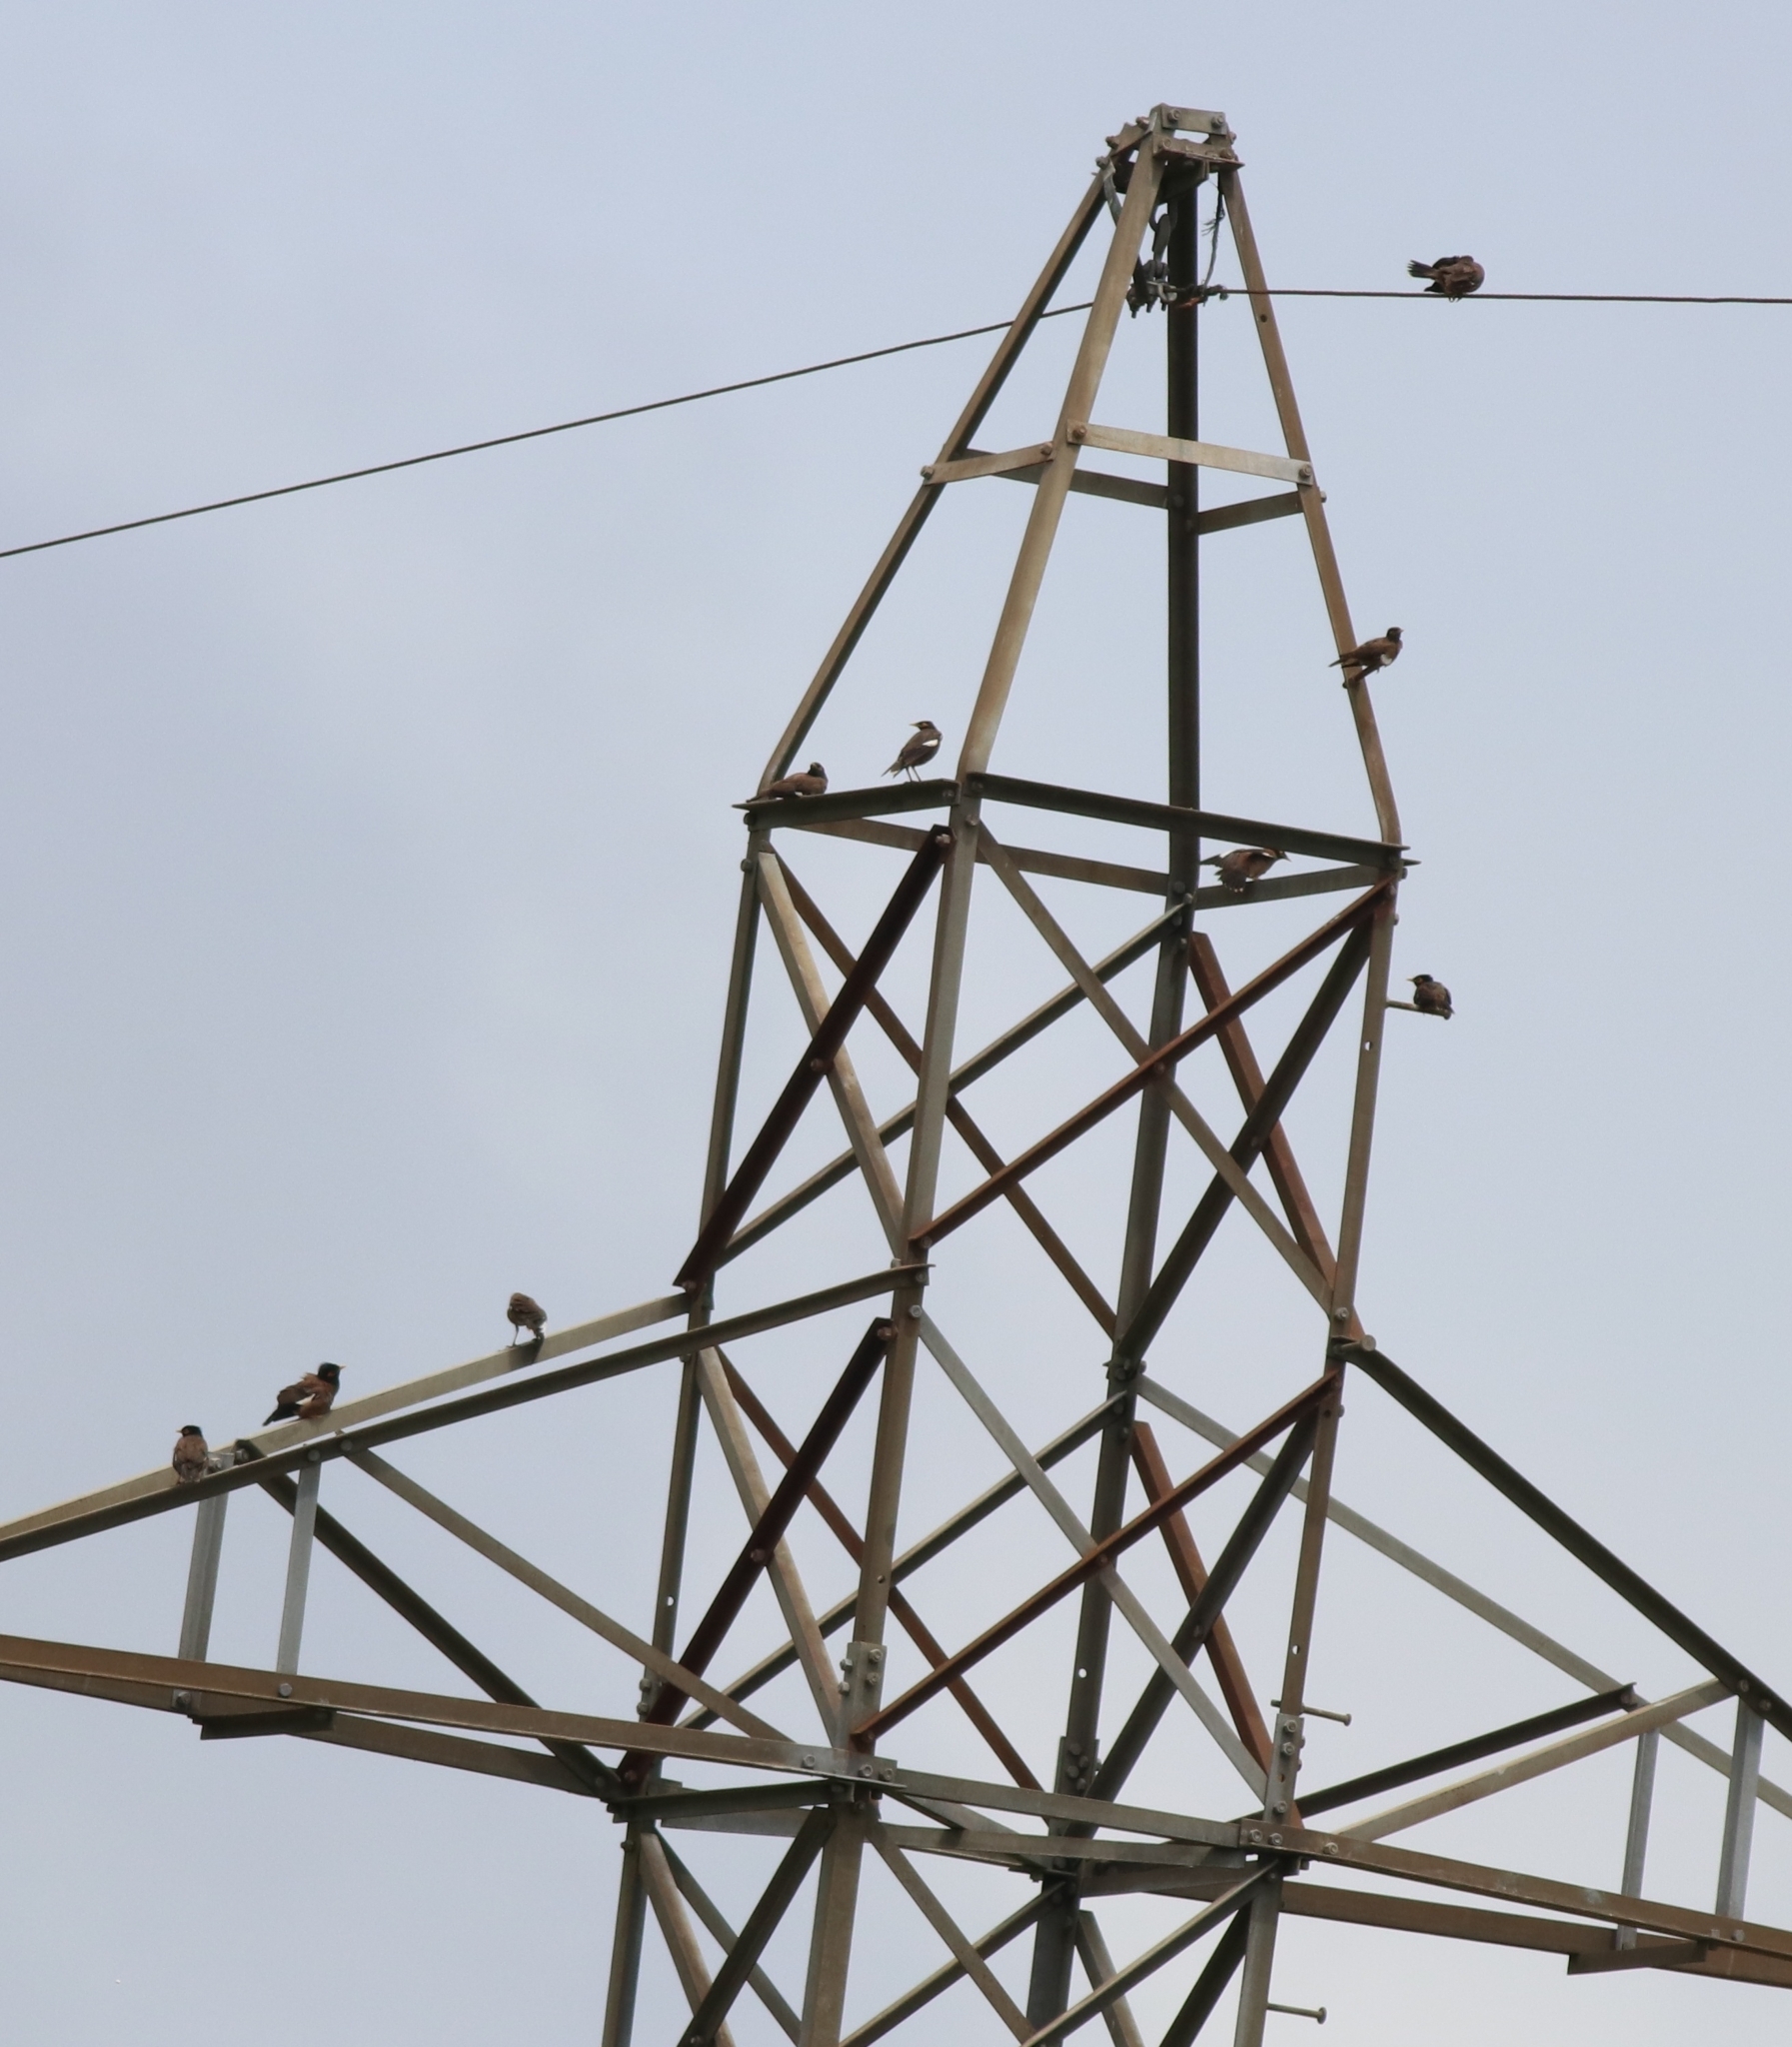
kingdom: Animalia
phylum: Chordata
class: Aves
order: Passeriformes
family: Sturnidae
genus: Acridotheres
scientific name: Acridotheres tristis
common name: Common myna
